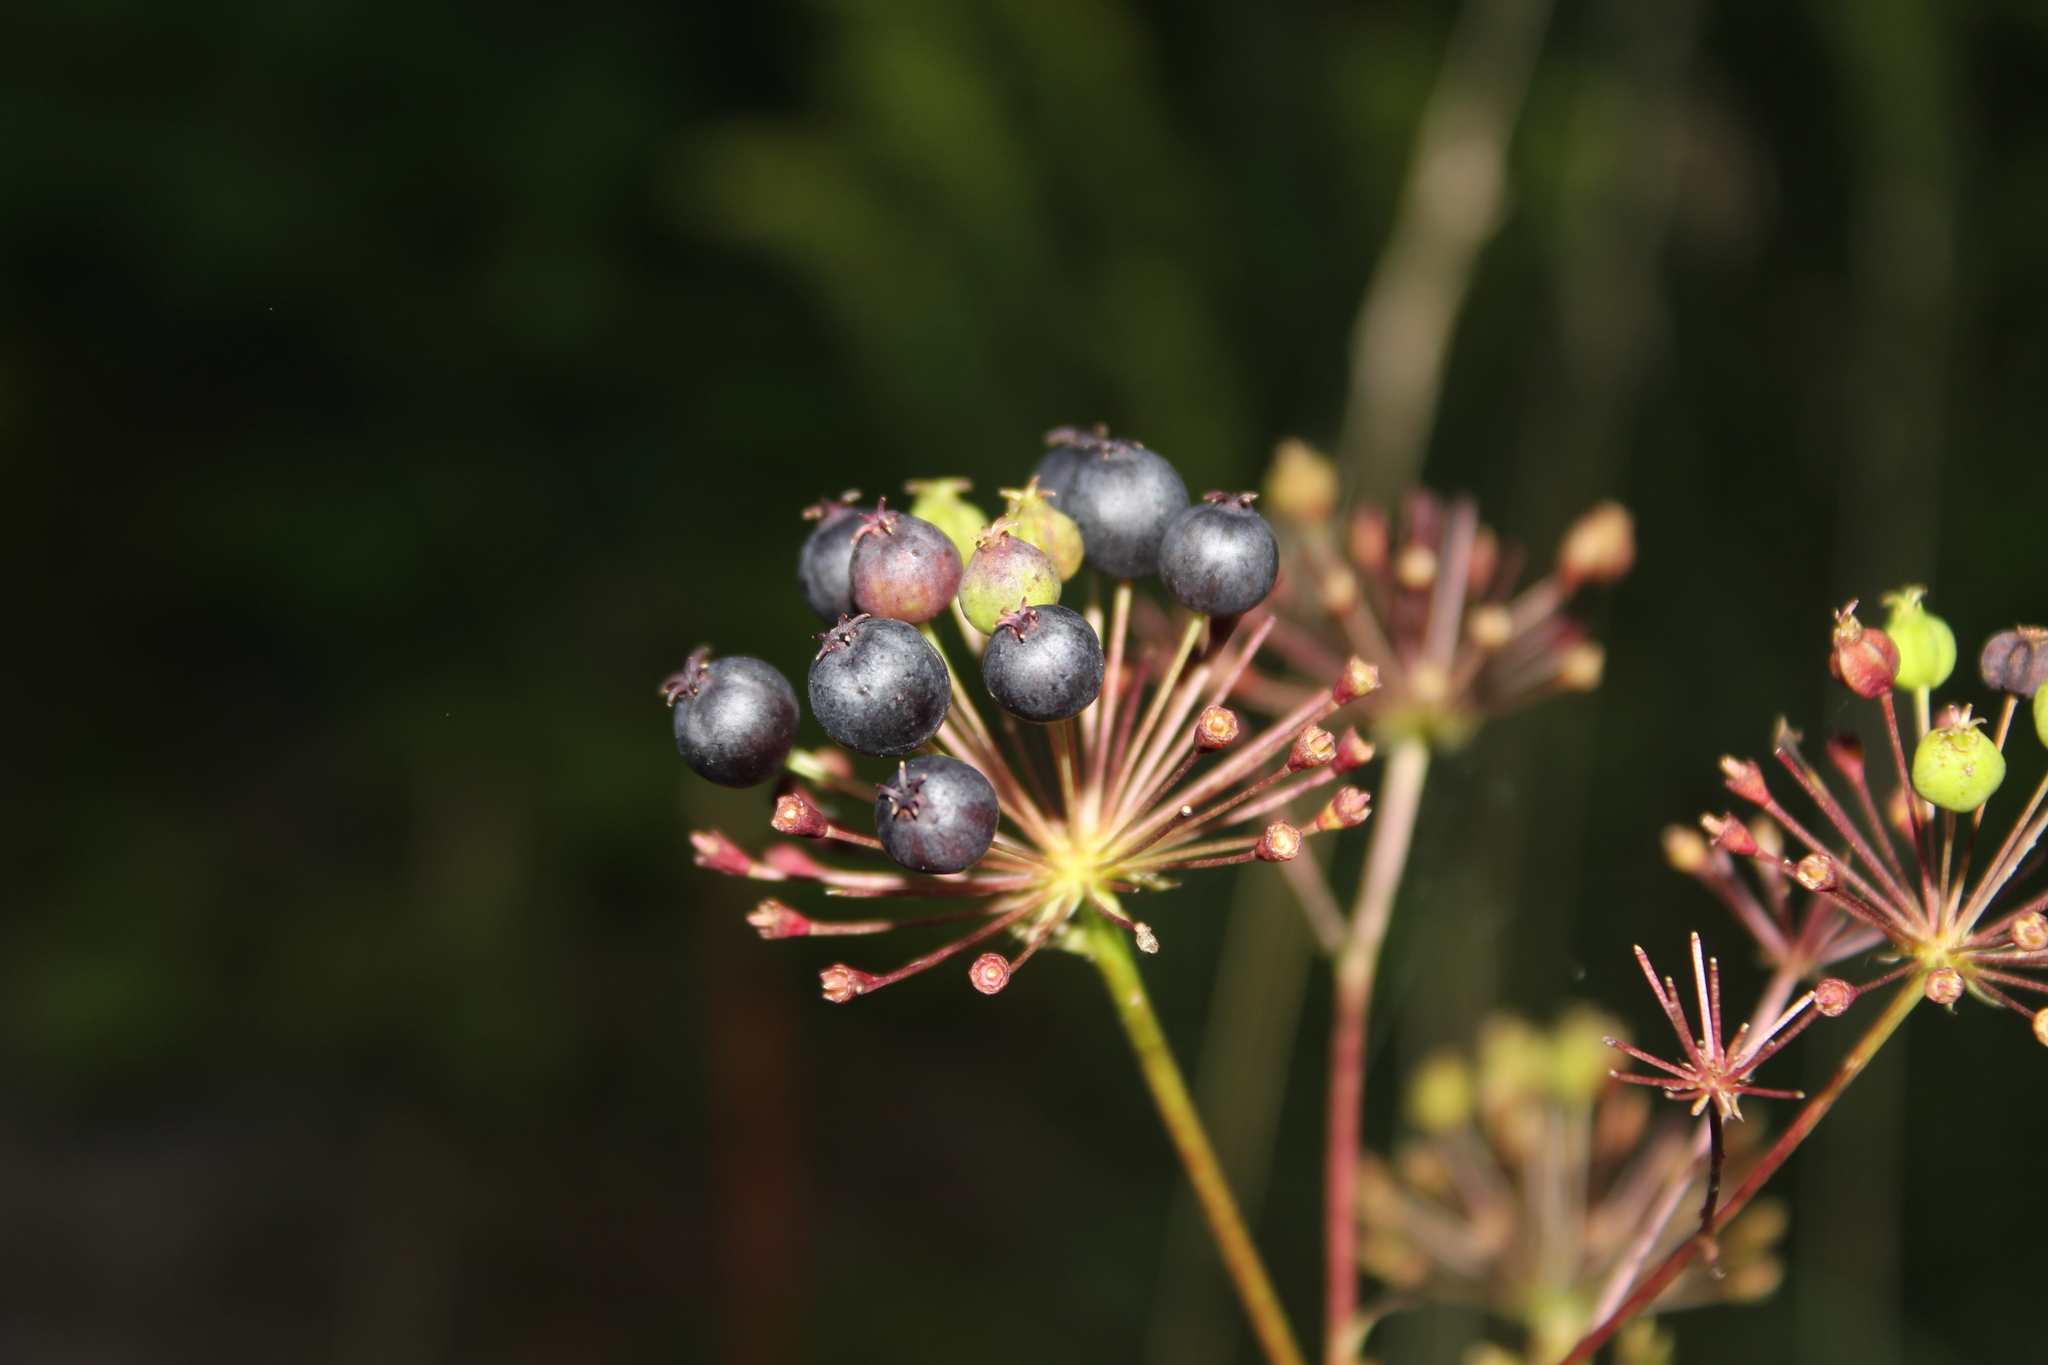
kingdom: Plantae
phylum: Tracheophyta
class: Magnoliopsida
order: Apiales
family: Araliaceae
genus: Aralia
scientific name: Aralia hispida
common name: Bristly sarsaparilla
